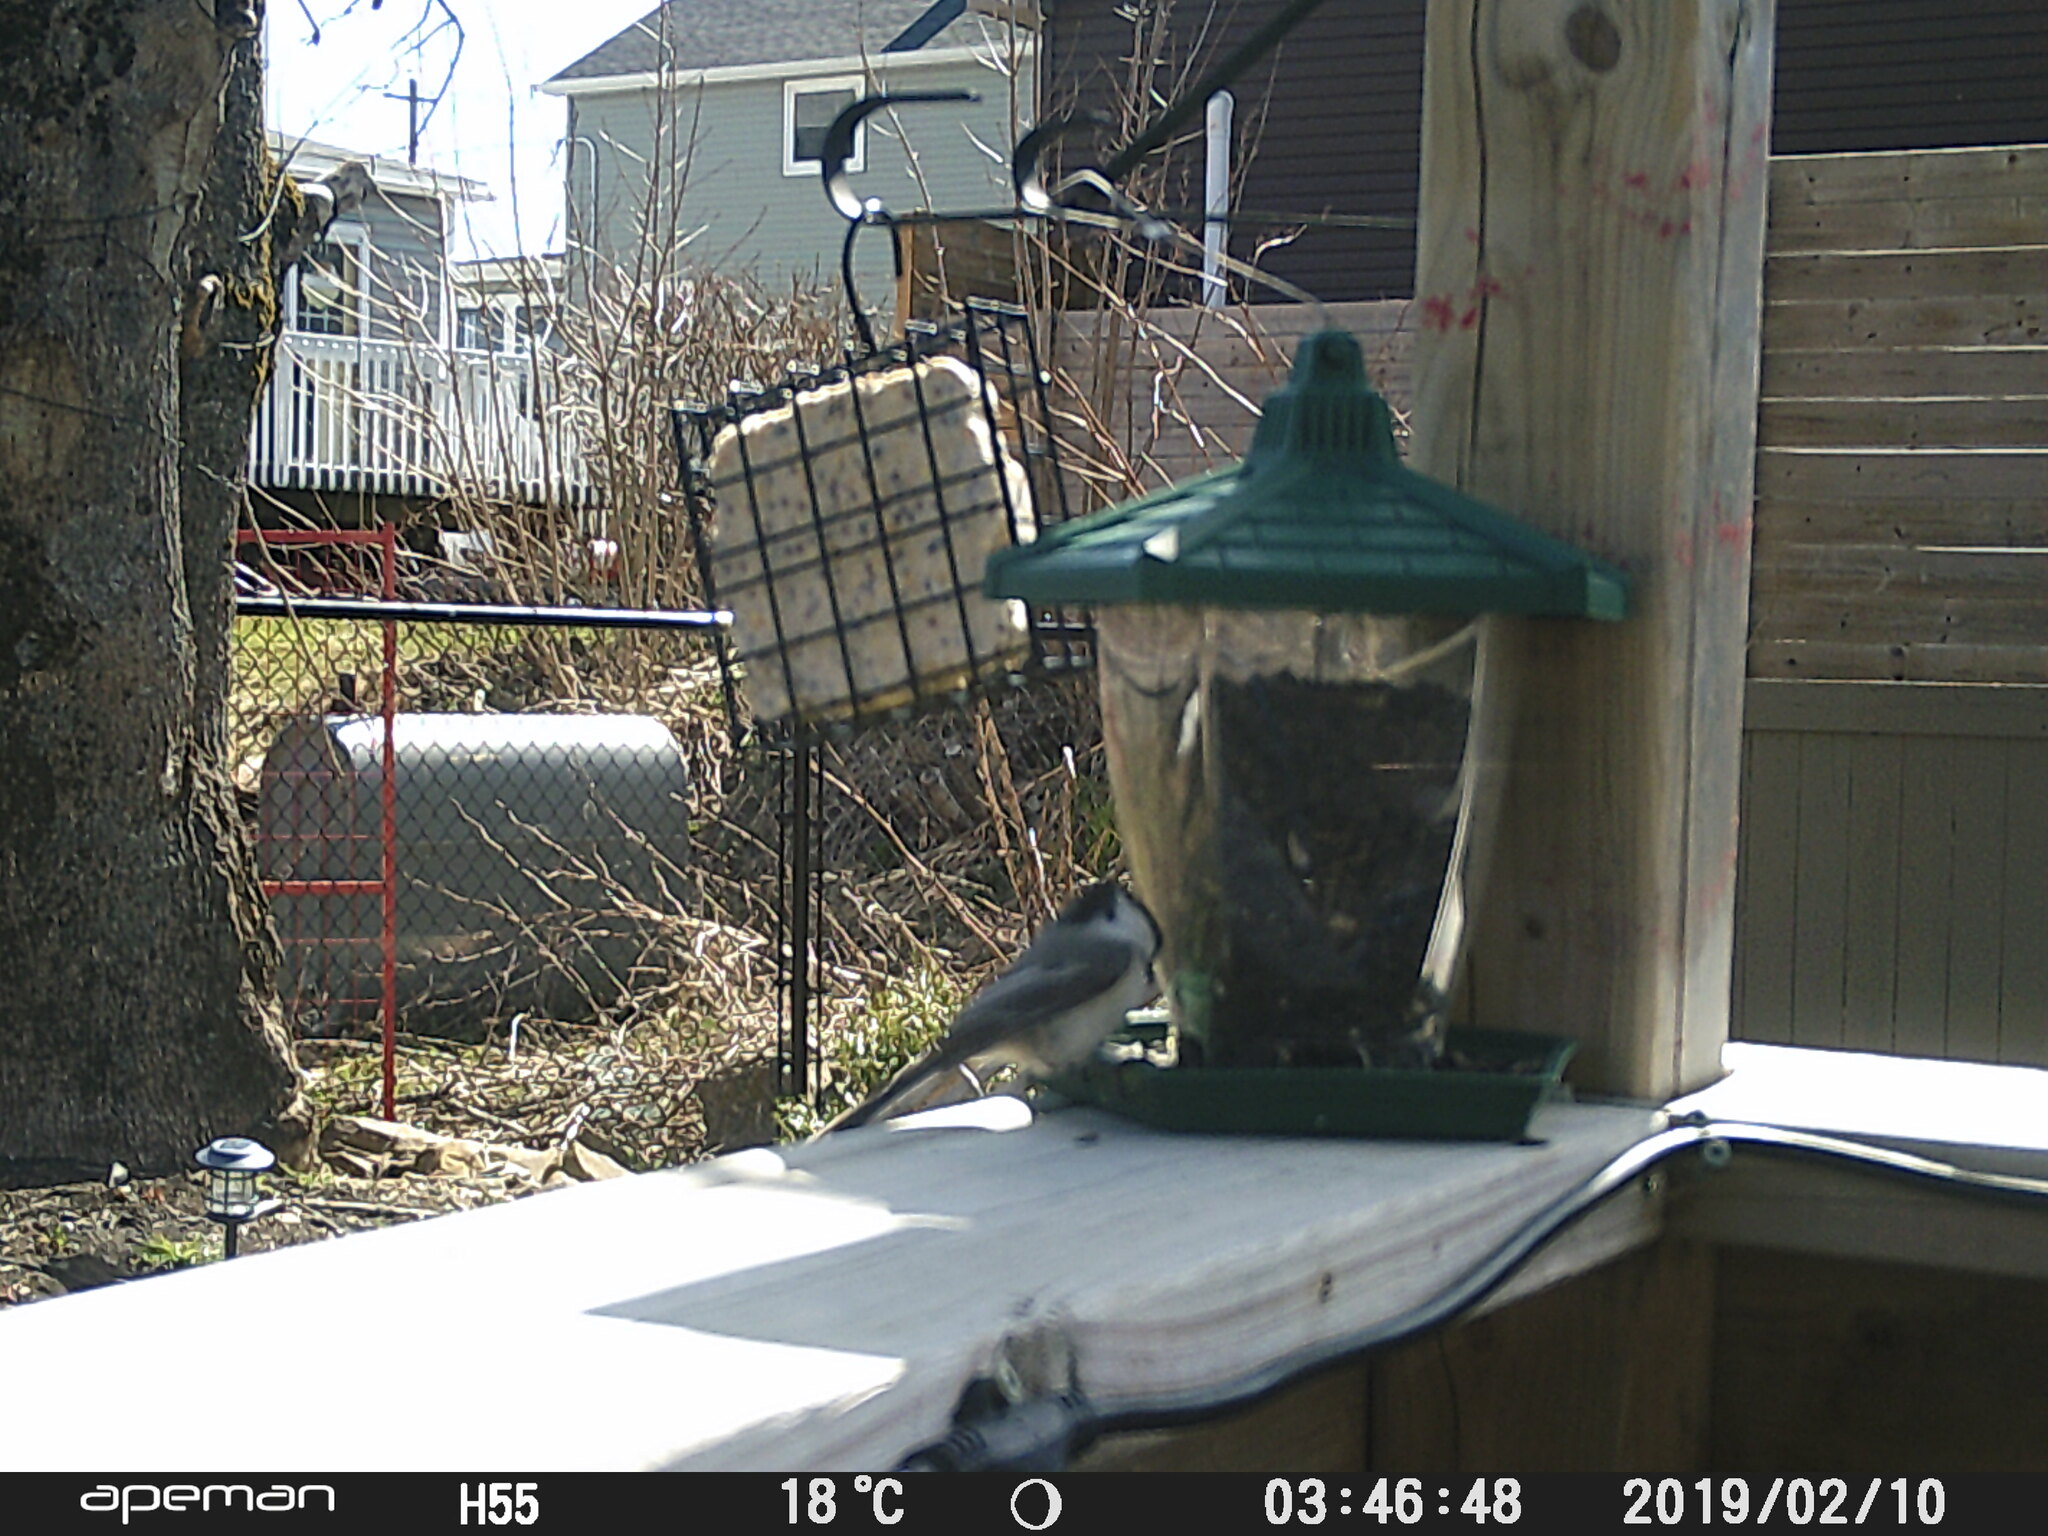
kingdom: Animalia
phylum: Chordata
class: Aves
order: Passeriformes
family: Paridae
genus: Poecile
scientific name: Poecile atricapillus
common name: Black-capped chickadee
